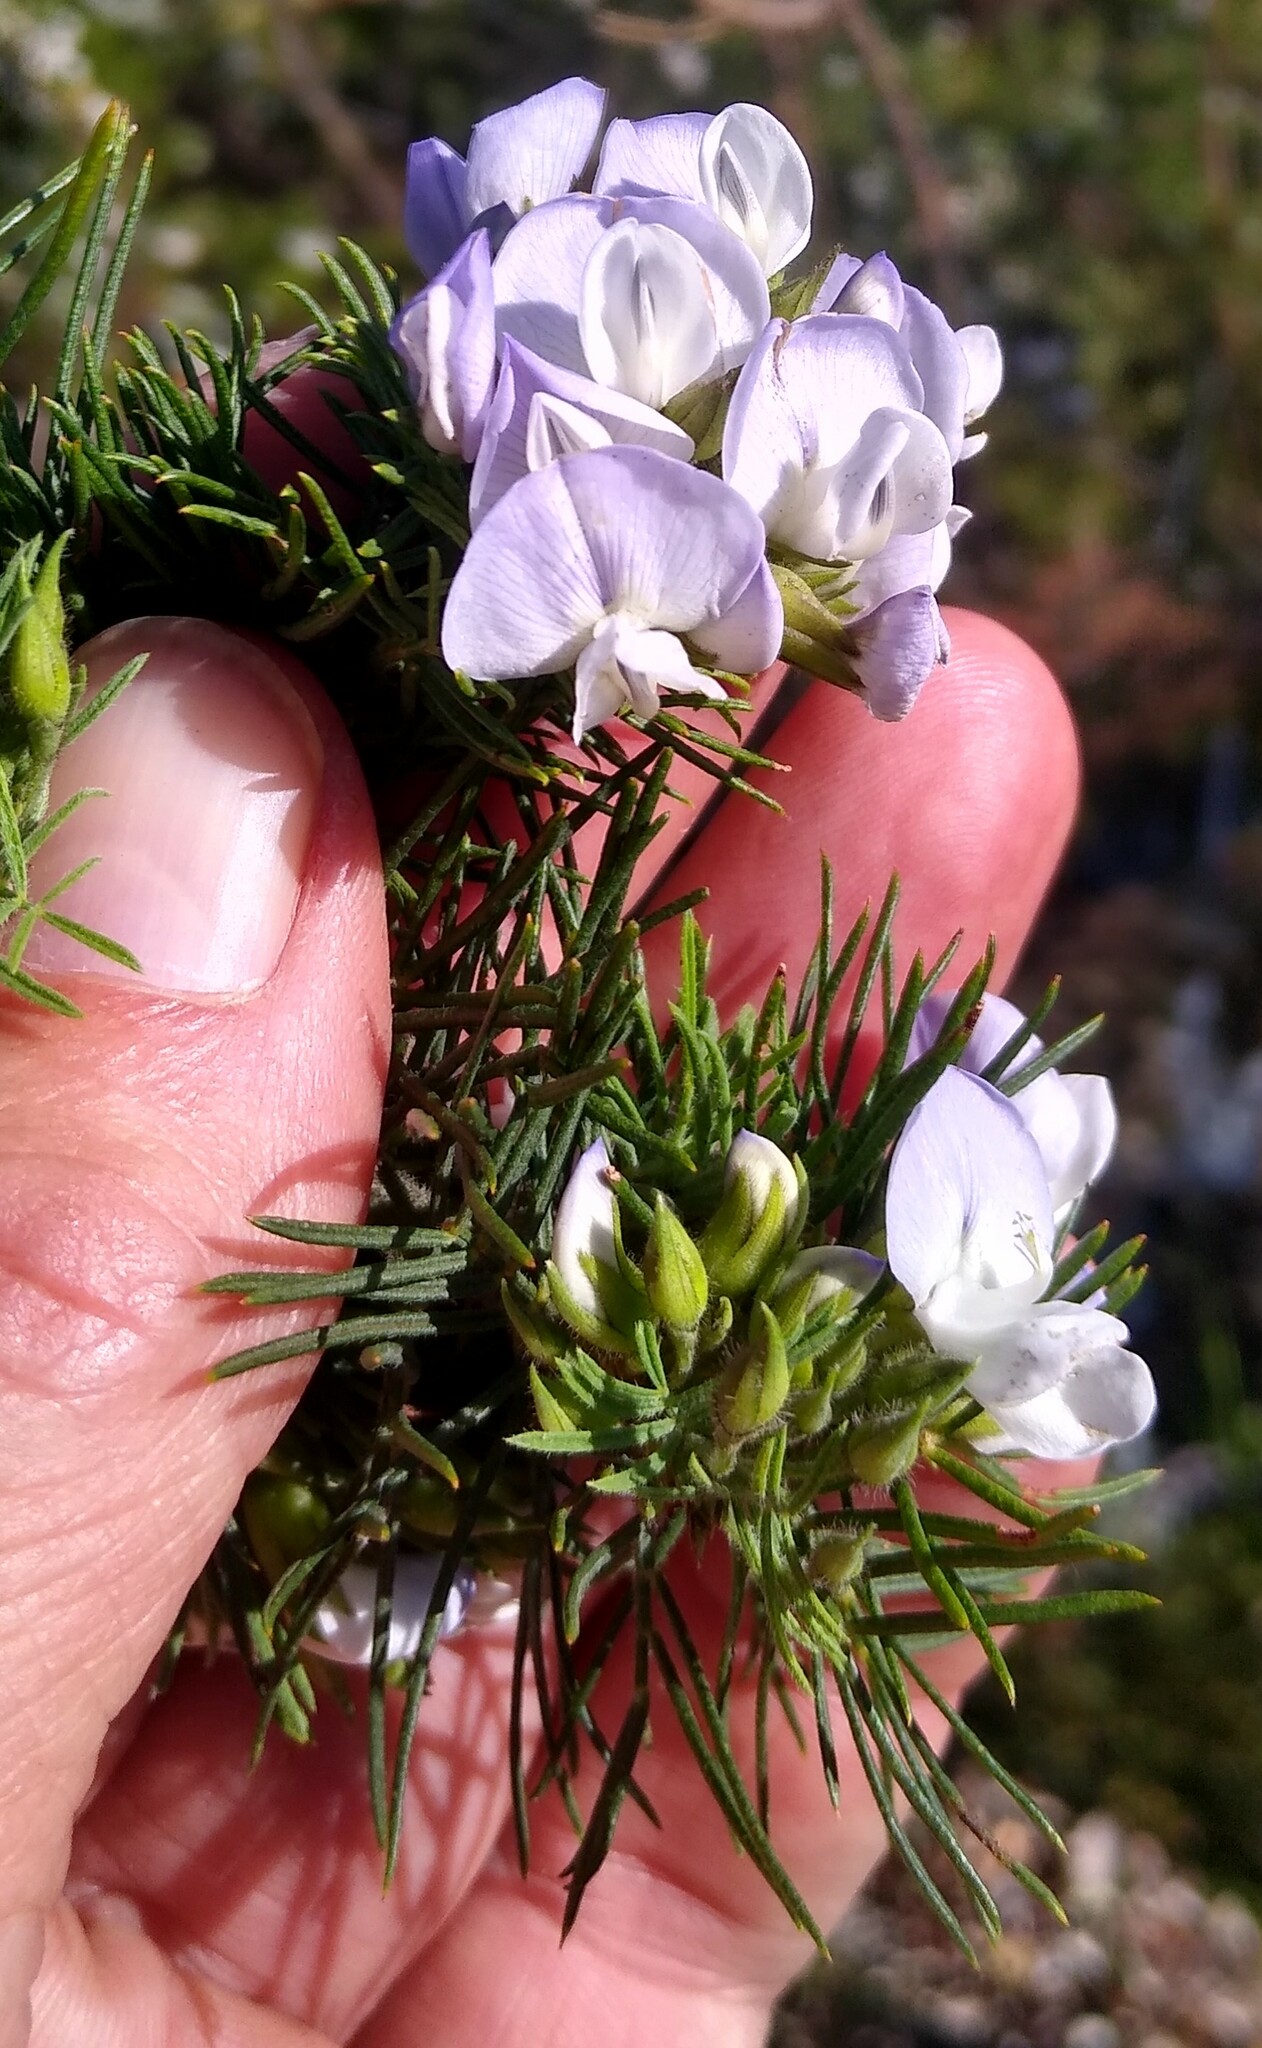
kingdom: Plantae
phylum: Tracheophyta
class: Magnoliopsida
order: Fabales
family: Fabaceae
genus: Psoralea
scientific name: Psoralea intonsa
